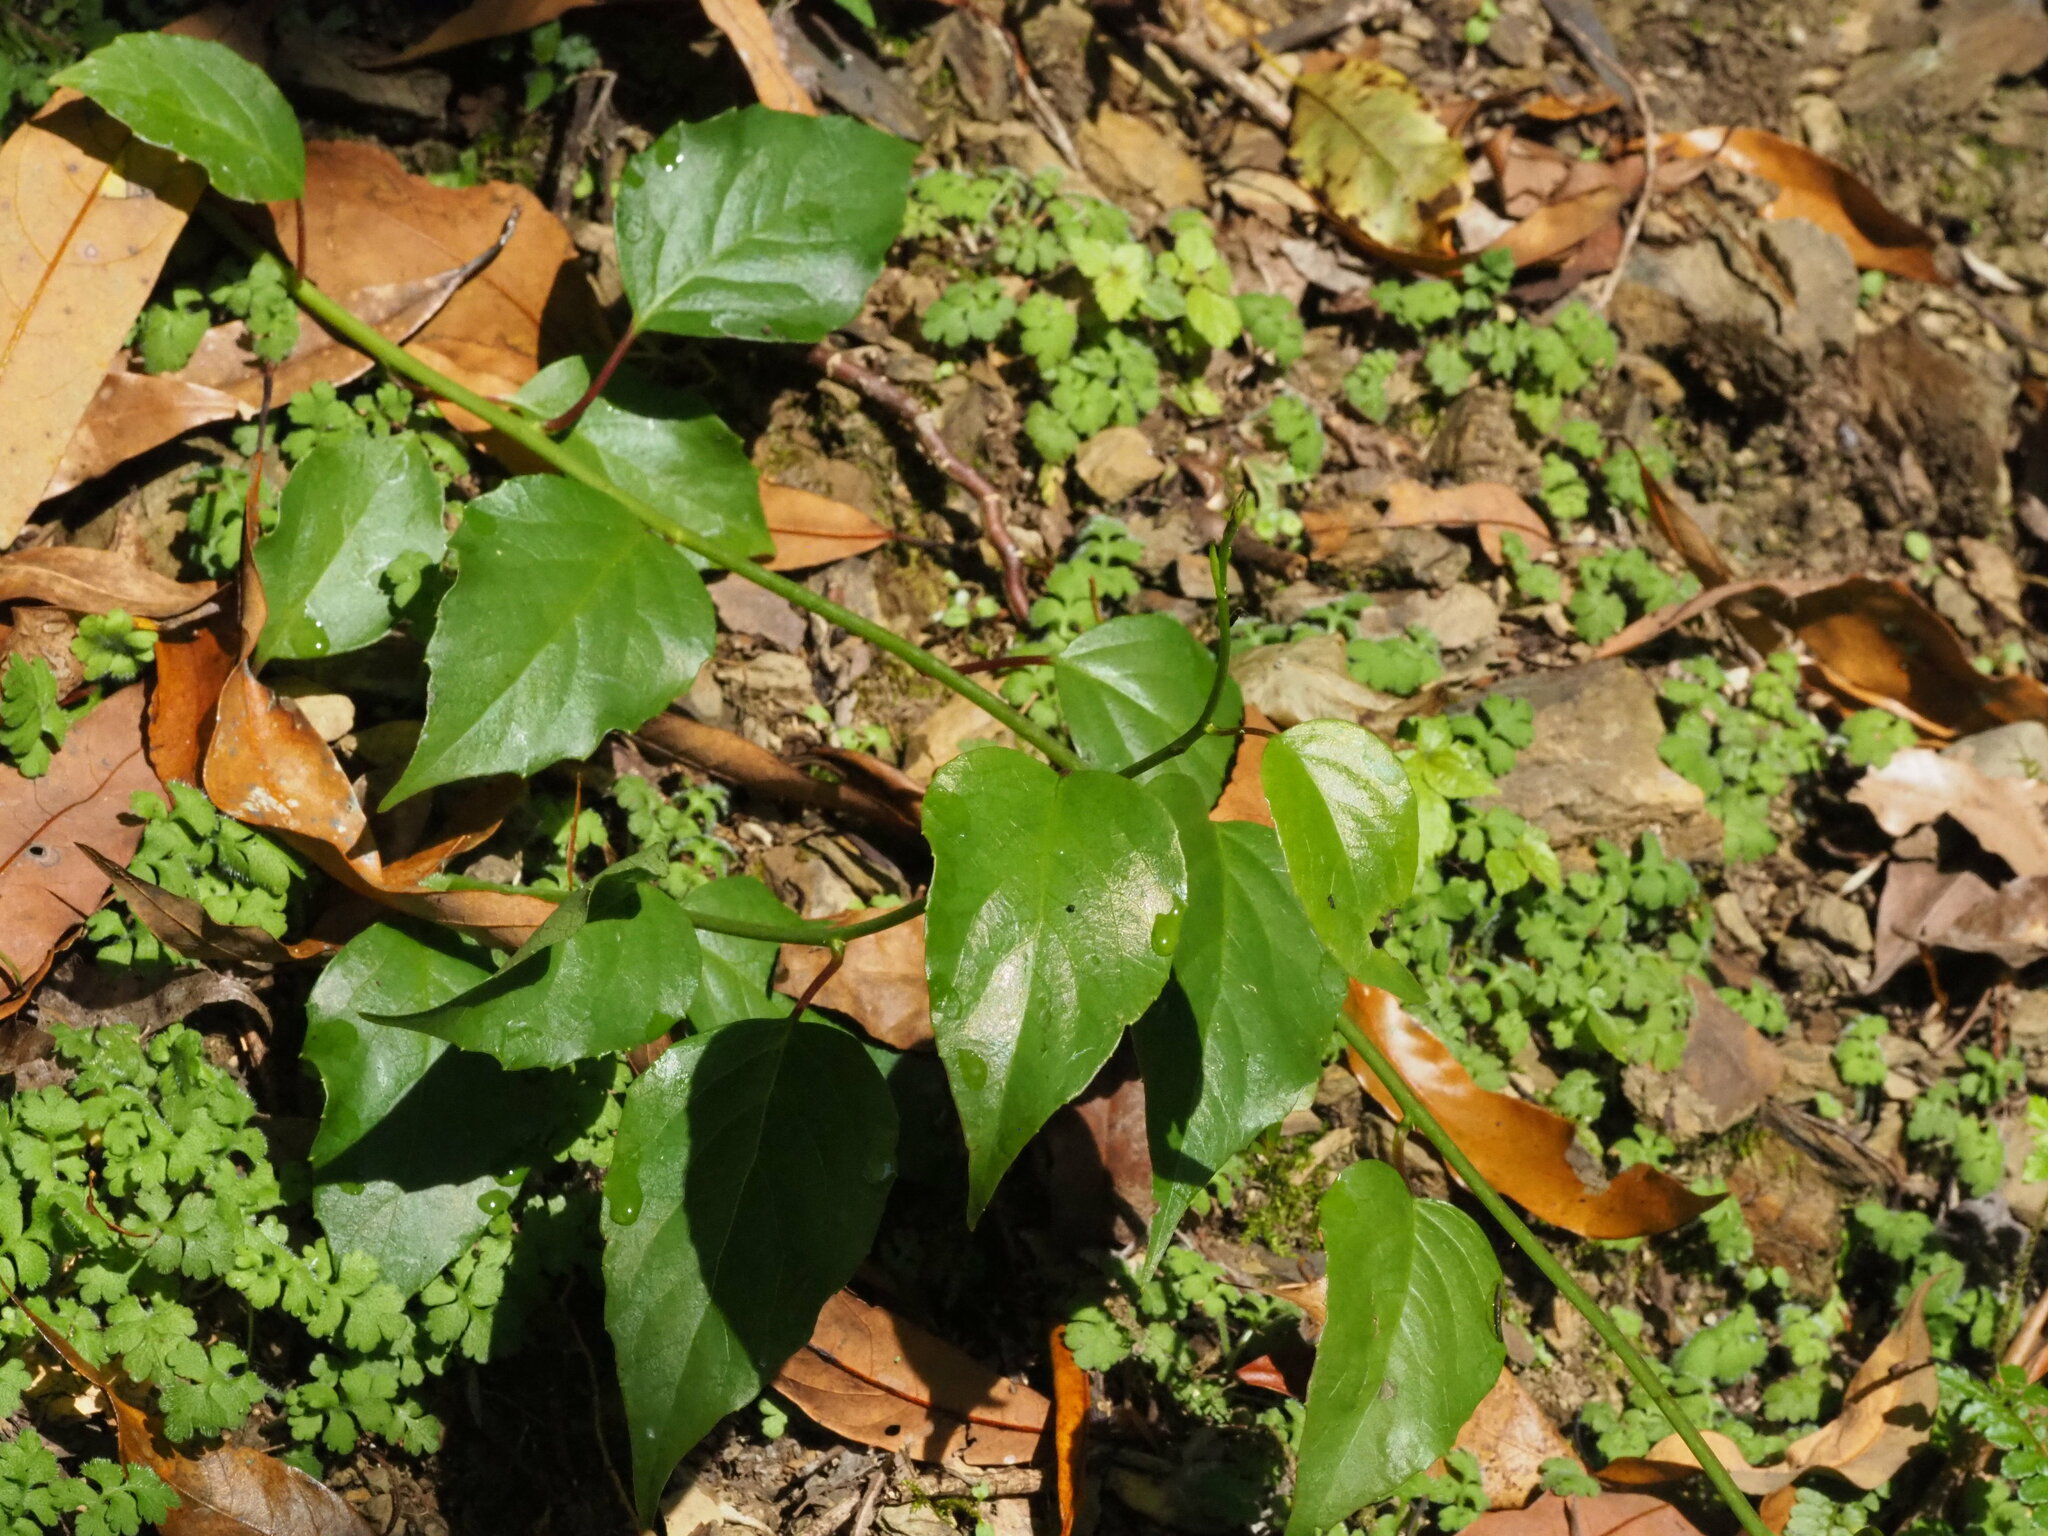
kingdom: Plantae
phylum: Tracheophyta
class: Magnoliopsida
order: Austrobaileyales
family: Schisandraceae
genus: Schisandra
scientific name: Schisandra arisanensis
